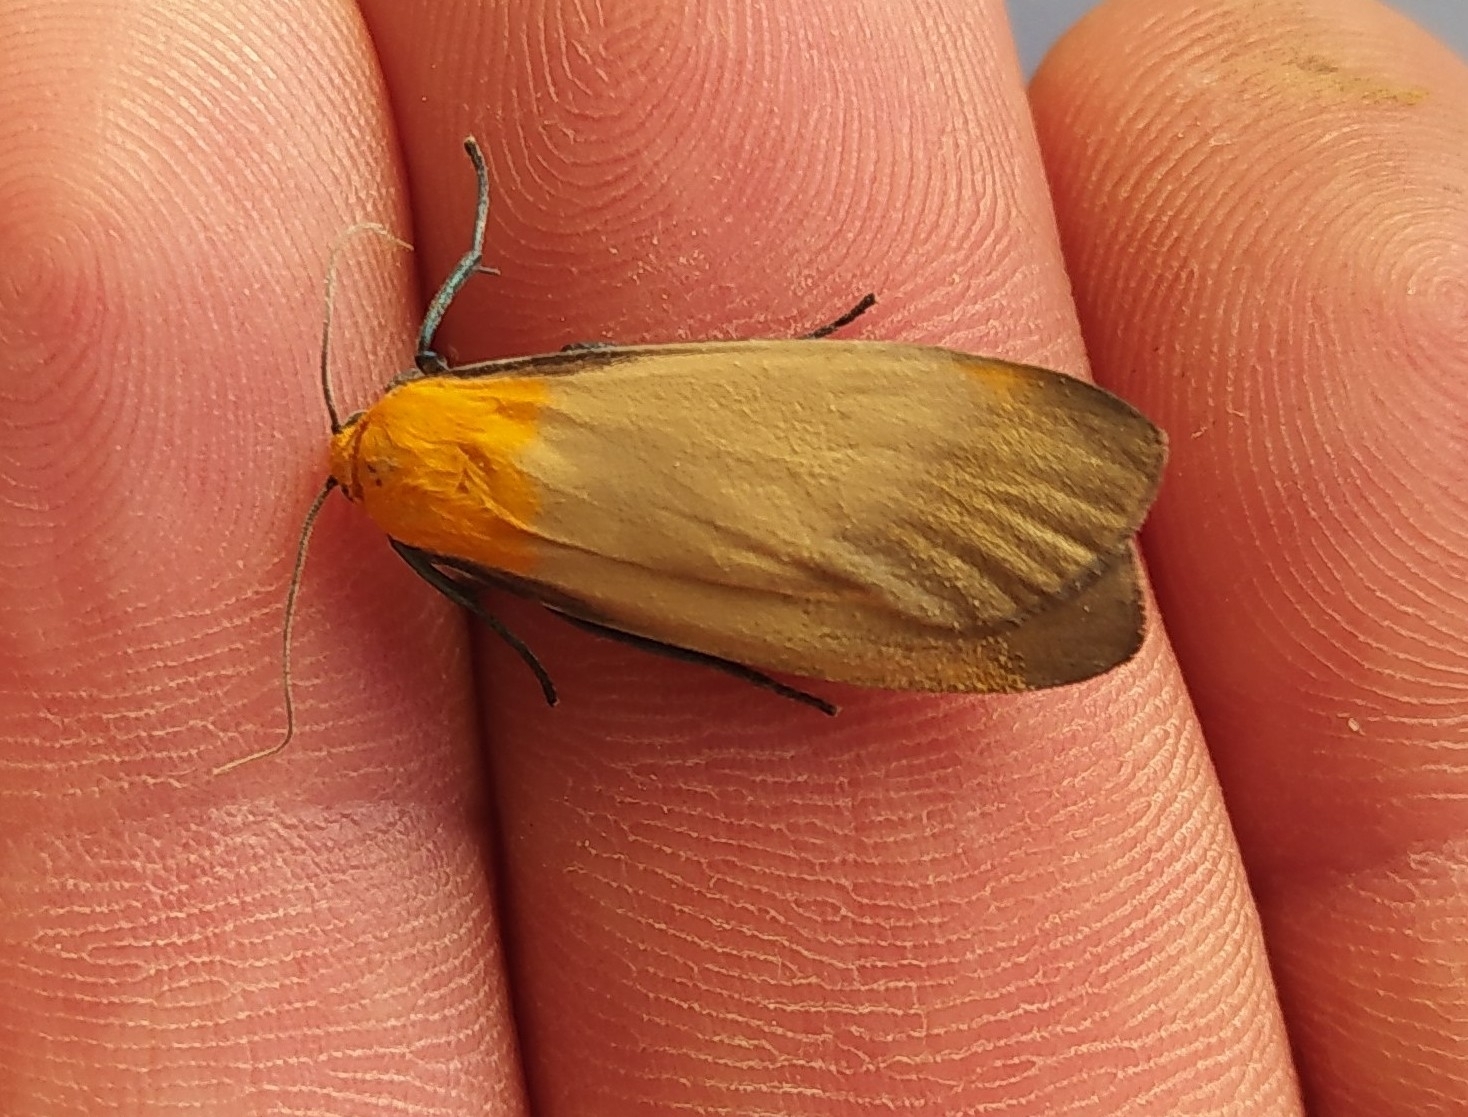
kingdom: Animalia
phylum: Arthropoda
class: Insecta
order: Lepidoptera
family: Erebidae
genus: Lithosia
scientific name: Lithosia quadra
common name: Four-spotted footman
